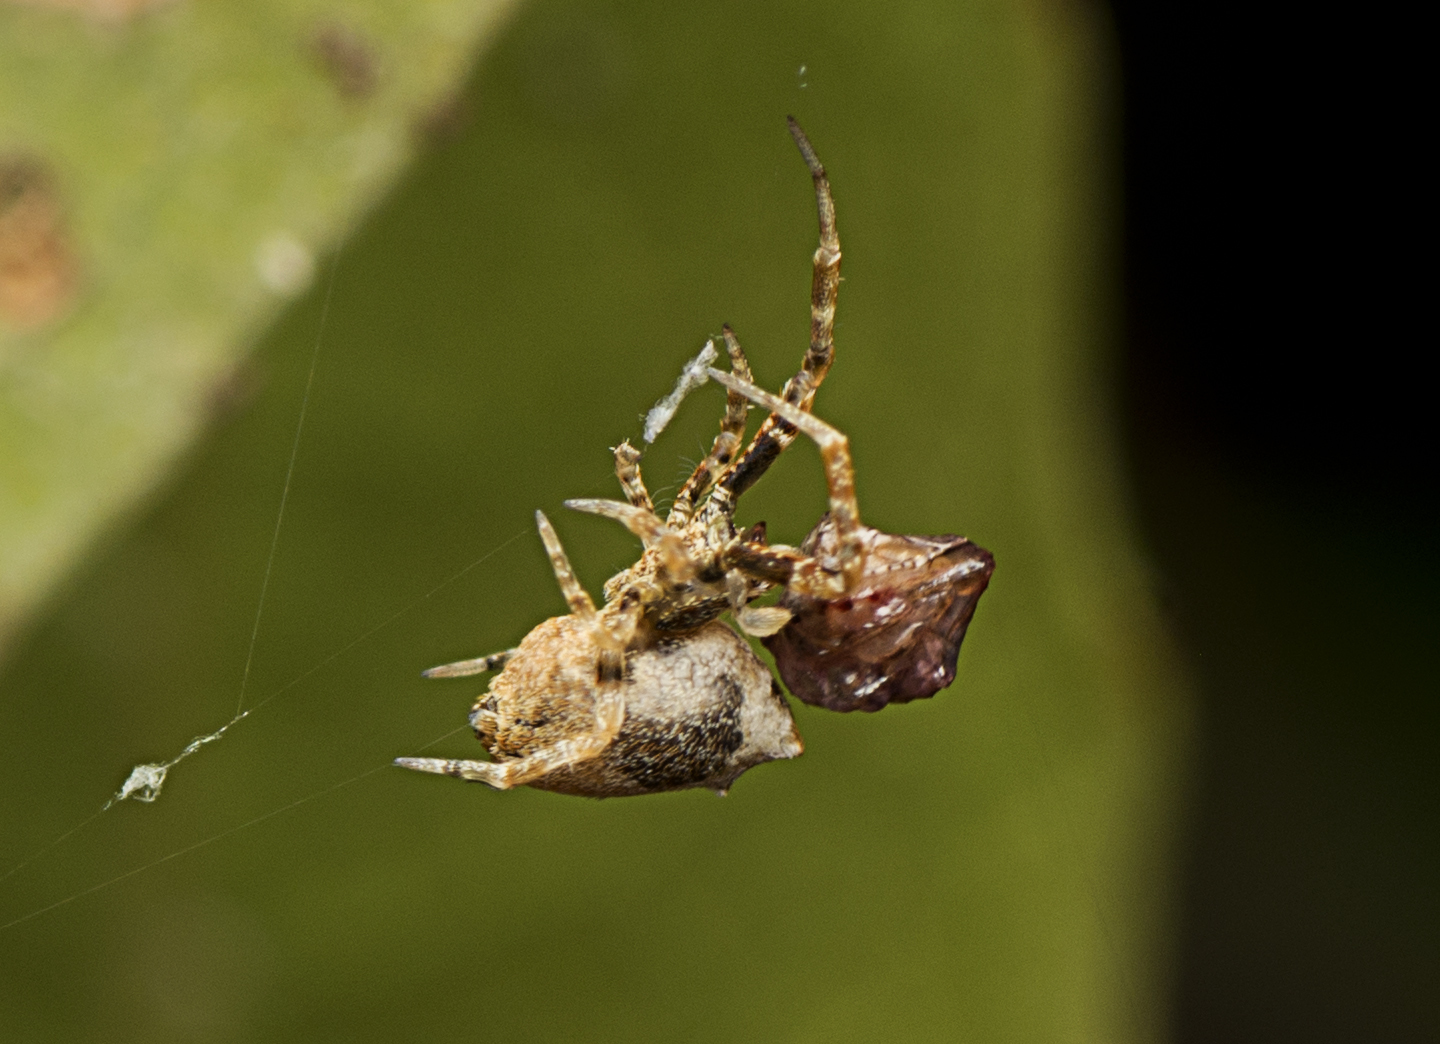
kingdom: Animalia
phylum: Arthropoda
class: Arachnida
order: Araneae
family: Uloboridae
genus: Philoponella
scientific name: Philoponella congregabilis
